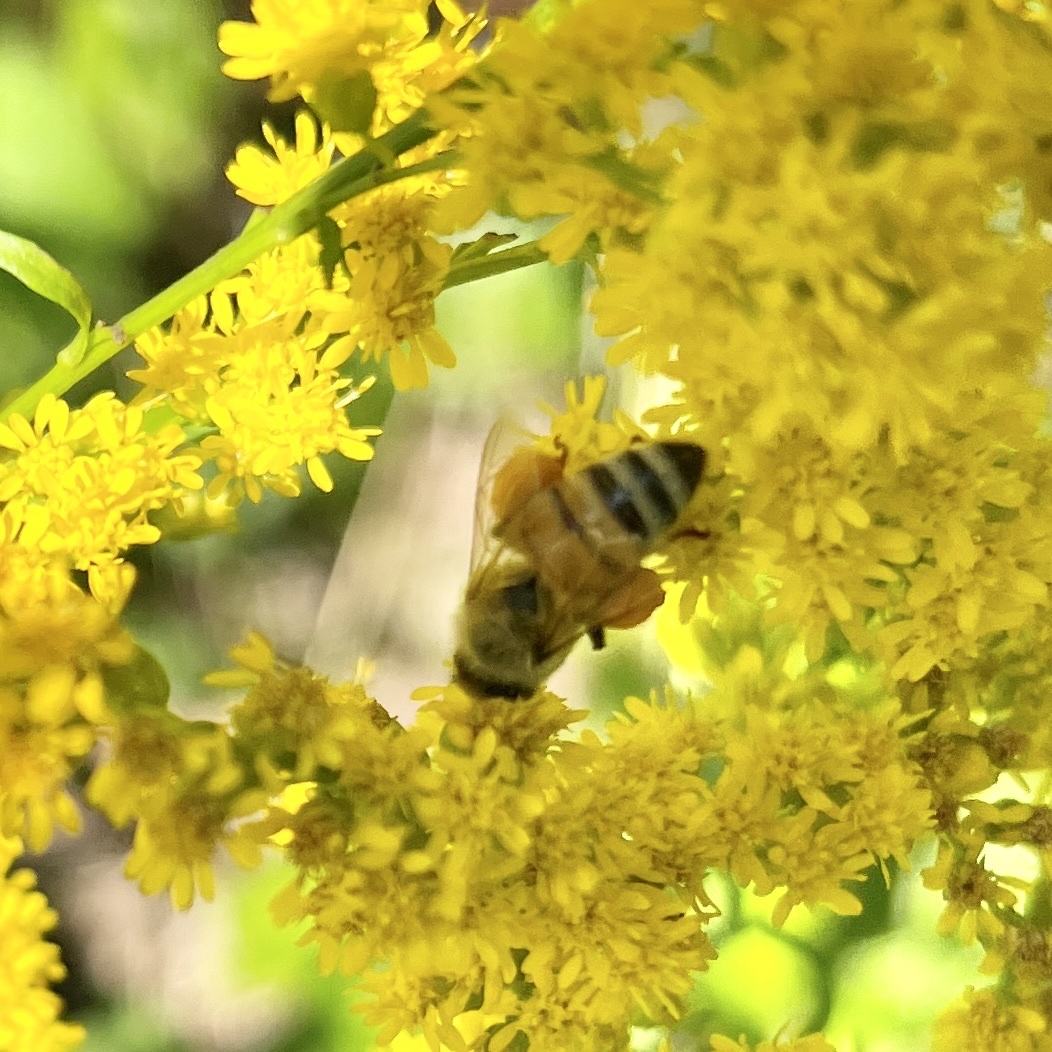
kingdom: Animalia
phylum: Arthropoda
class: Insecta
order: Hymenoptera
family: Apidae
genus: Apis
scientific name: Apis mellifera
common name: Honey bee
